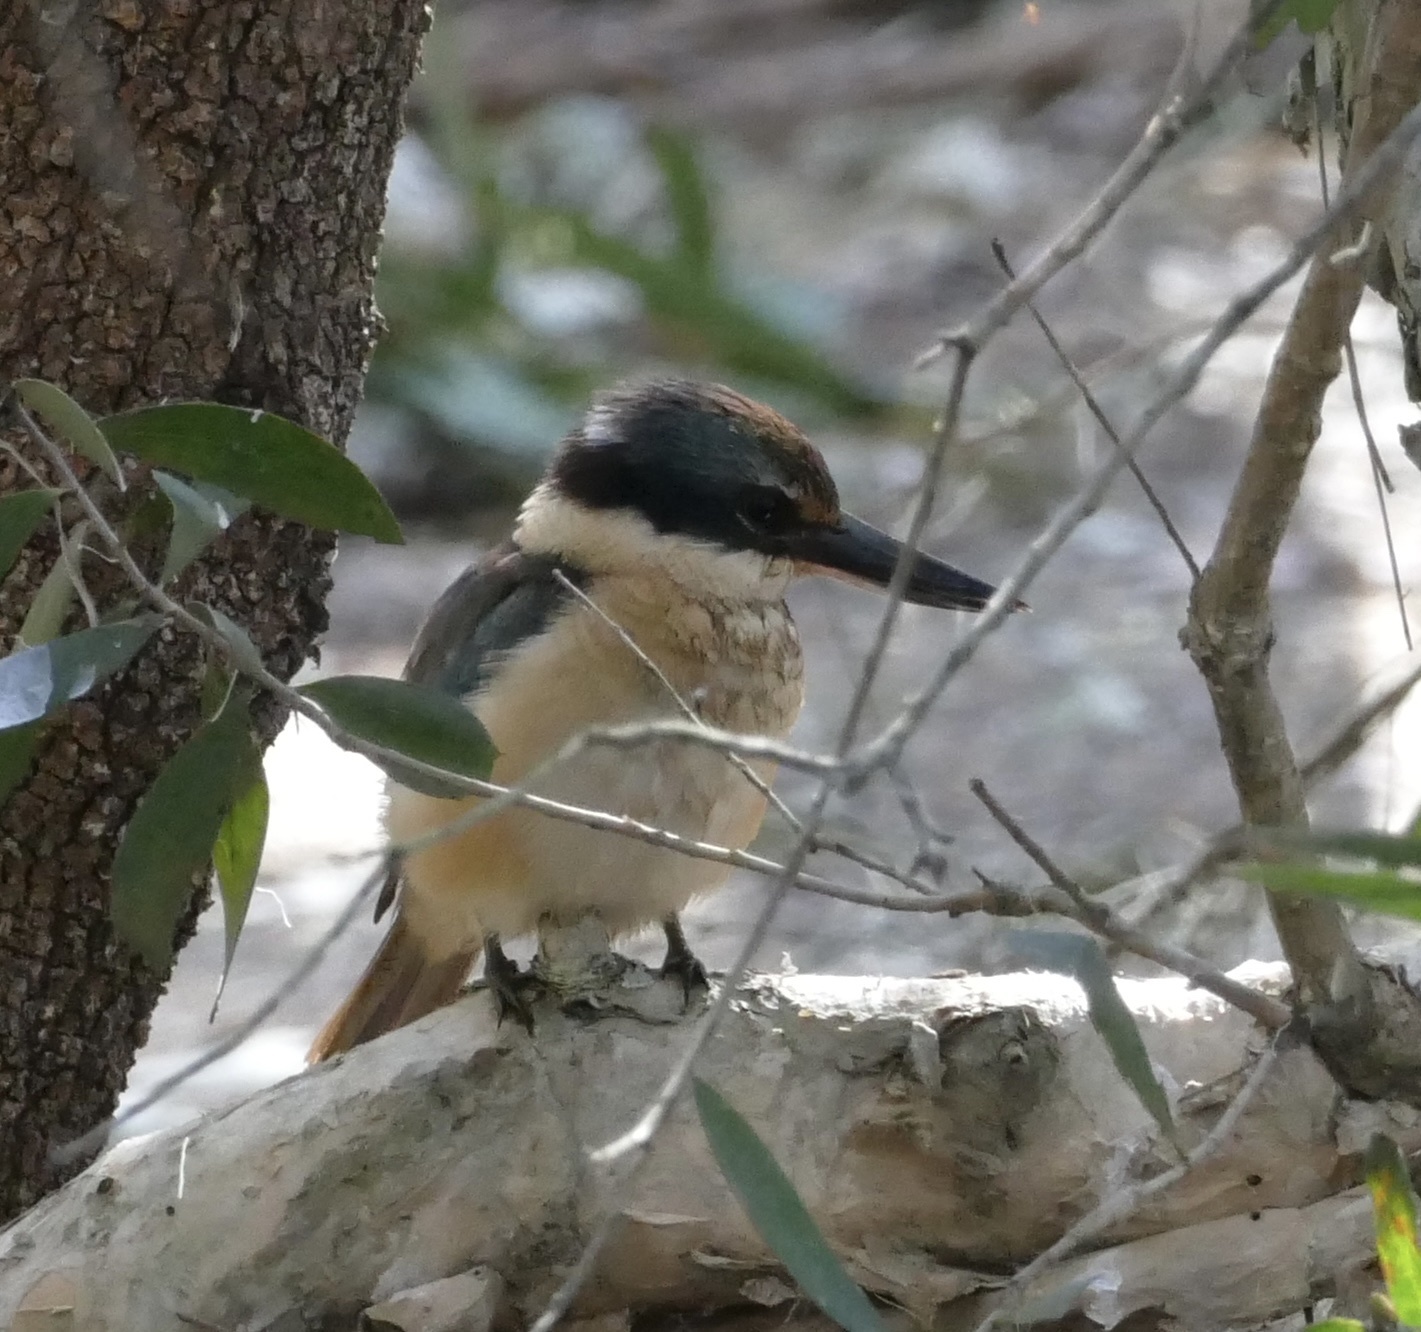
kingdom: Animalia
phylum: Chordata
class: Aves
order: Coraciiformes
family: Alcedinidae
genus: Todiramphus
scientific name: Todiramphus sanctus
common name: Sacred kingfisher
